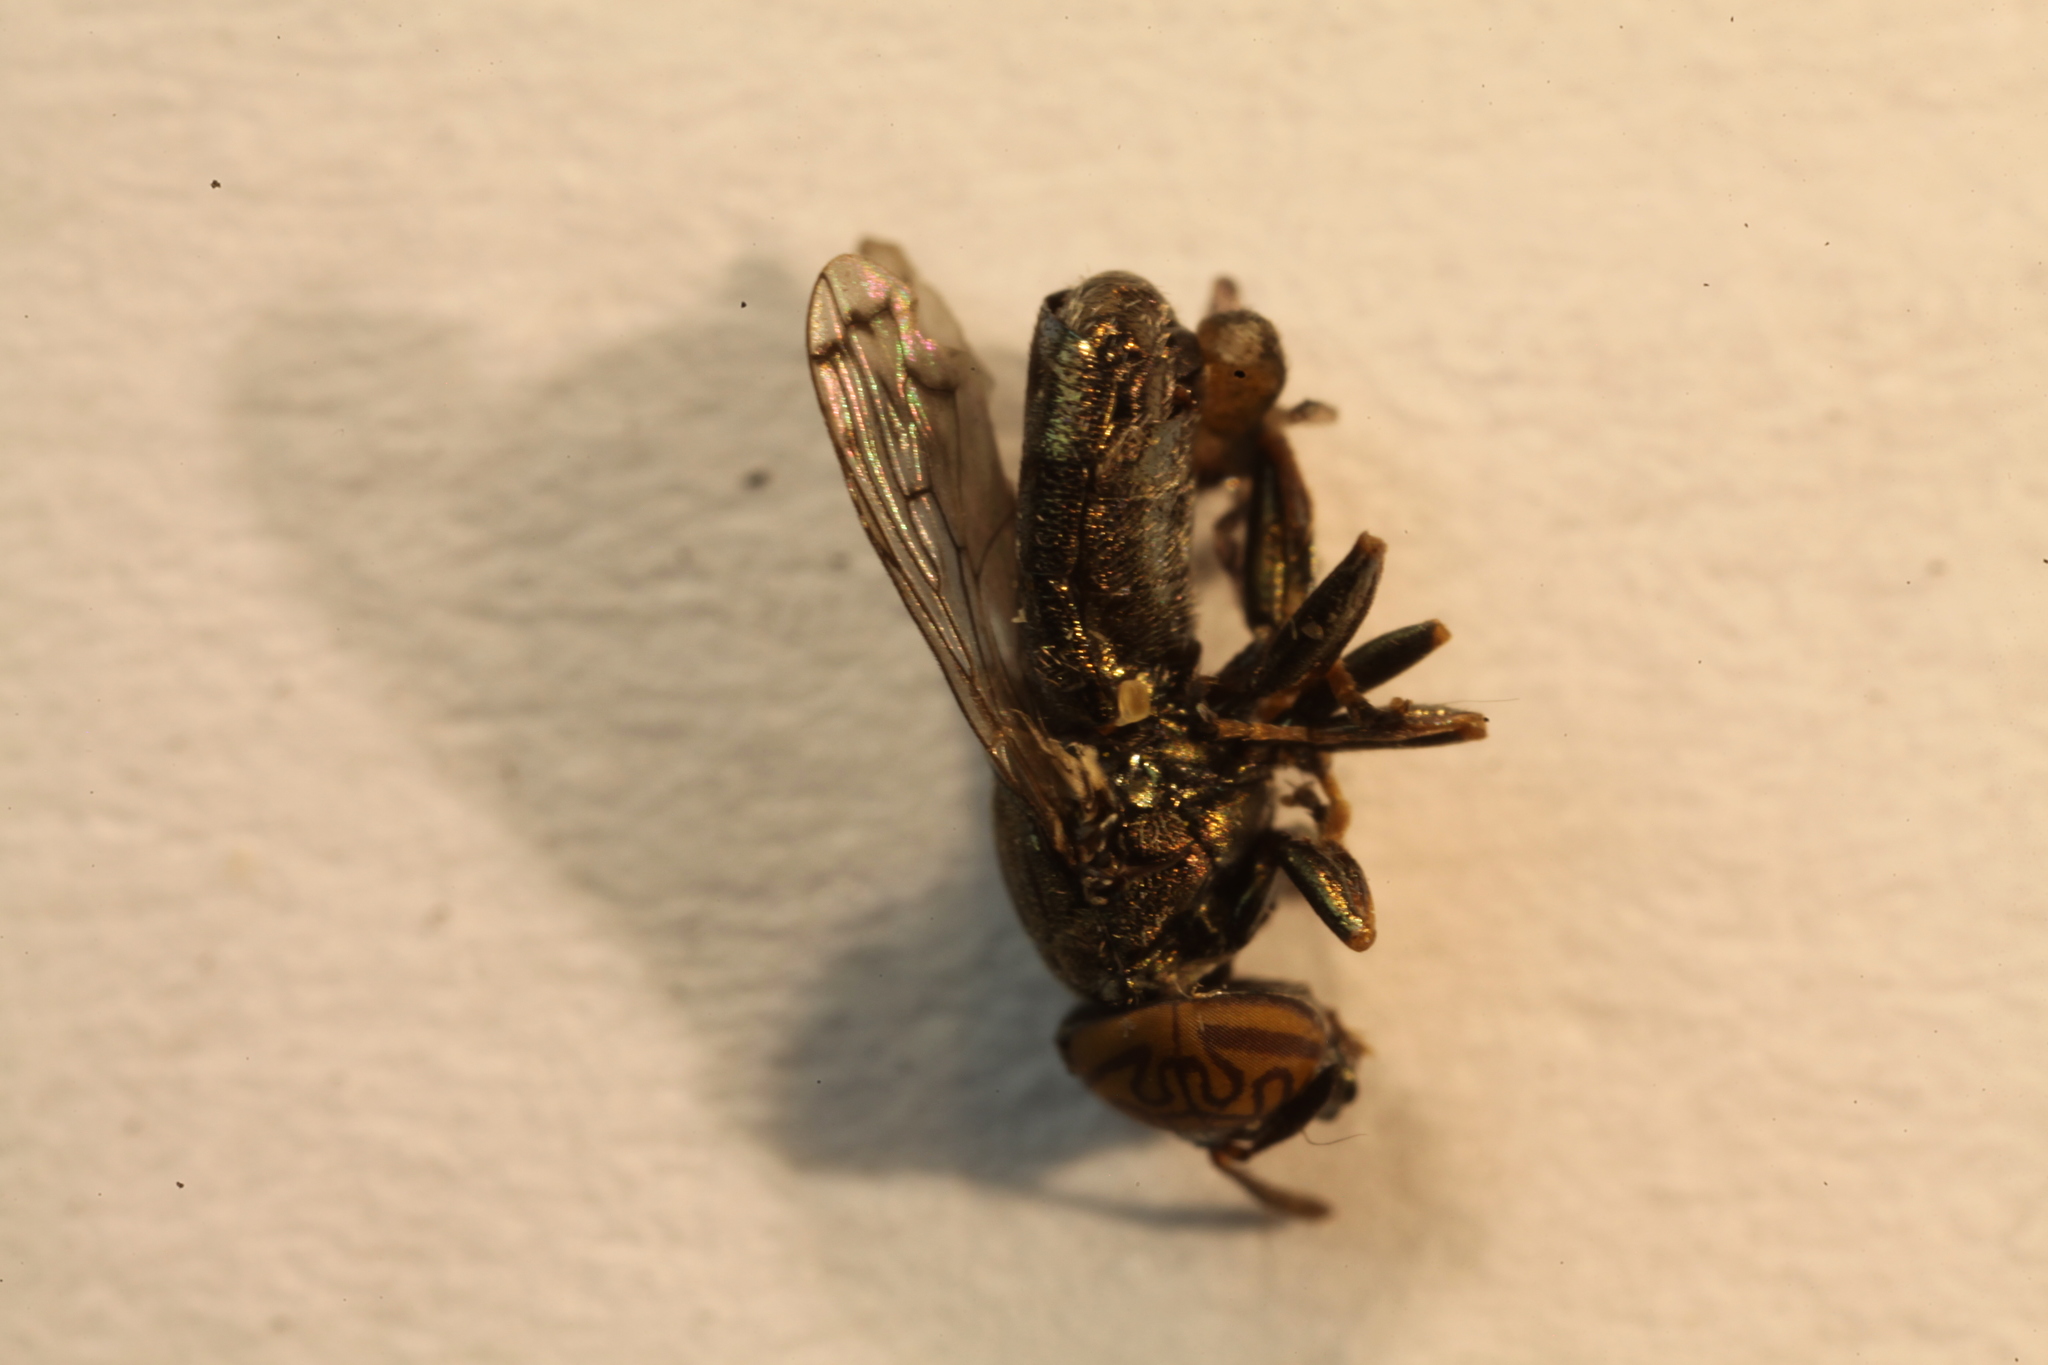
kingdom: Animalia
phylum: Arthropoda
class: Insecta
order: Diptera
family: Syrphidae
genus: Orthonevra
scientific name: Orthonevra nitida
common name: Wavy mucksucker
